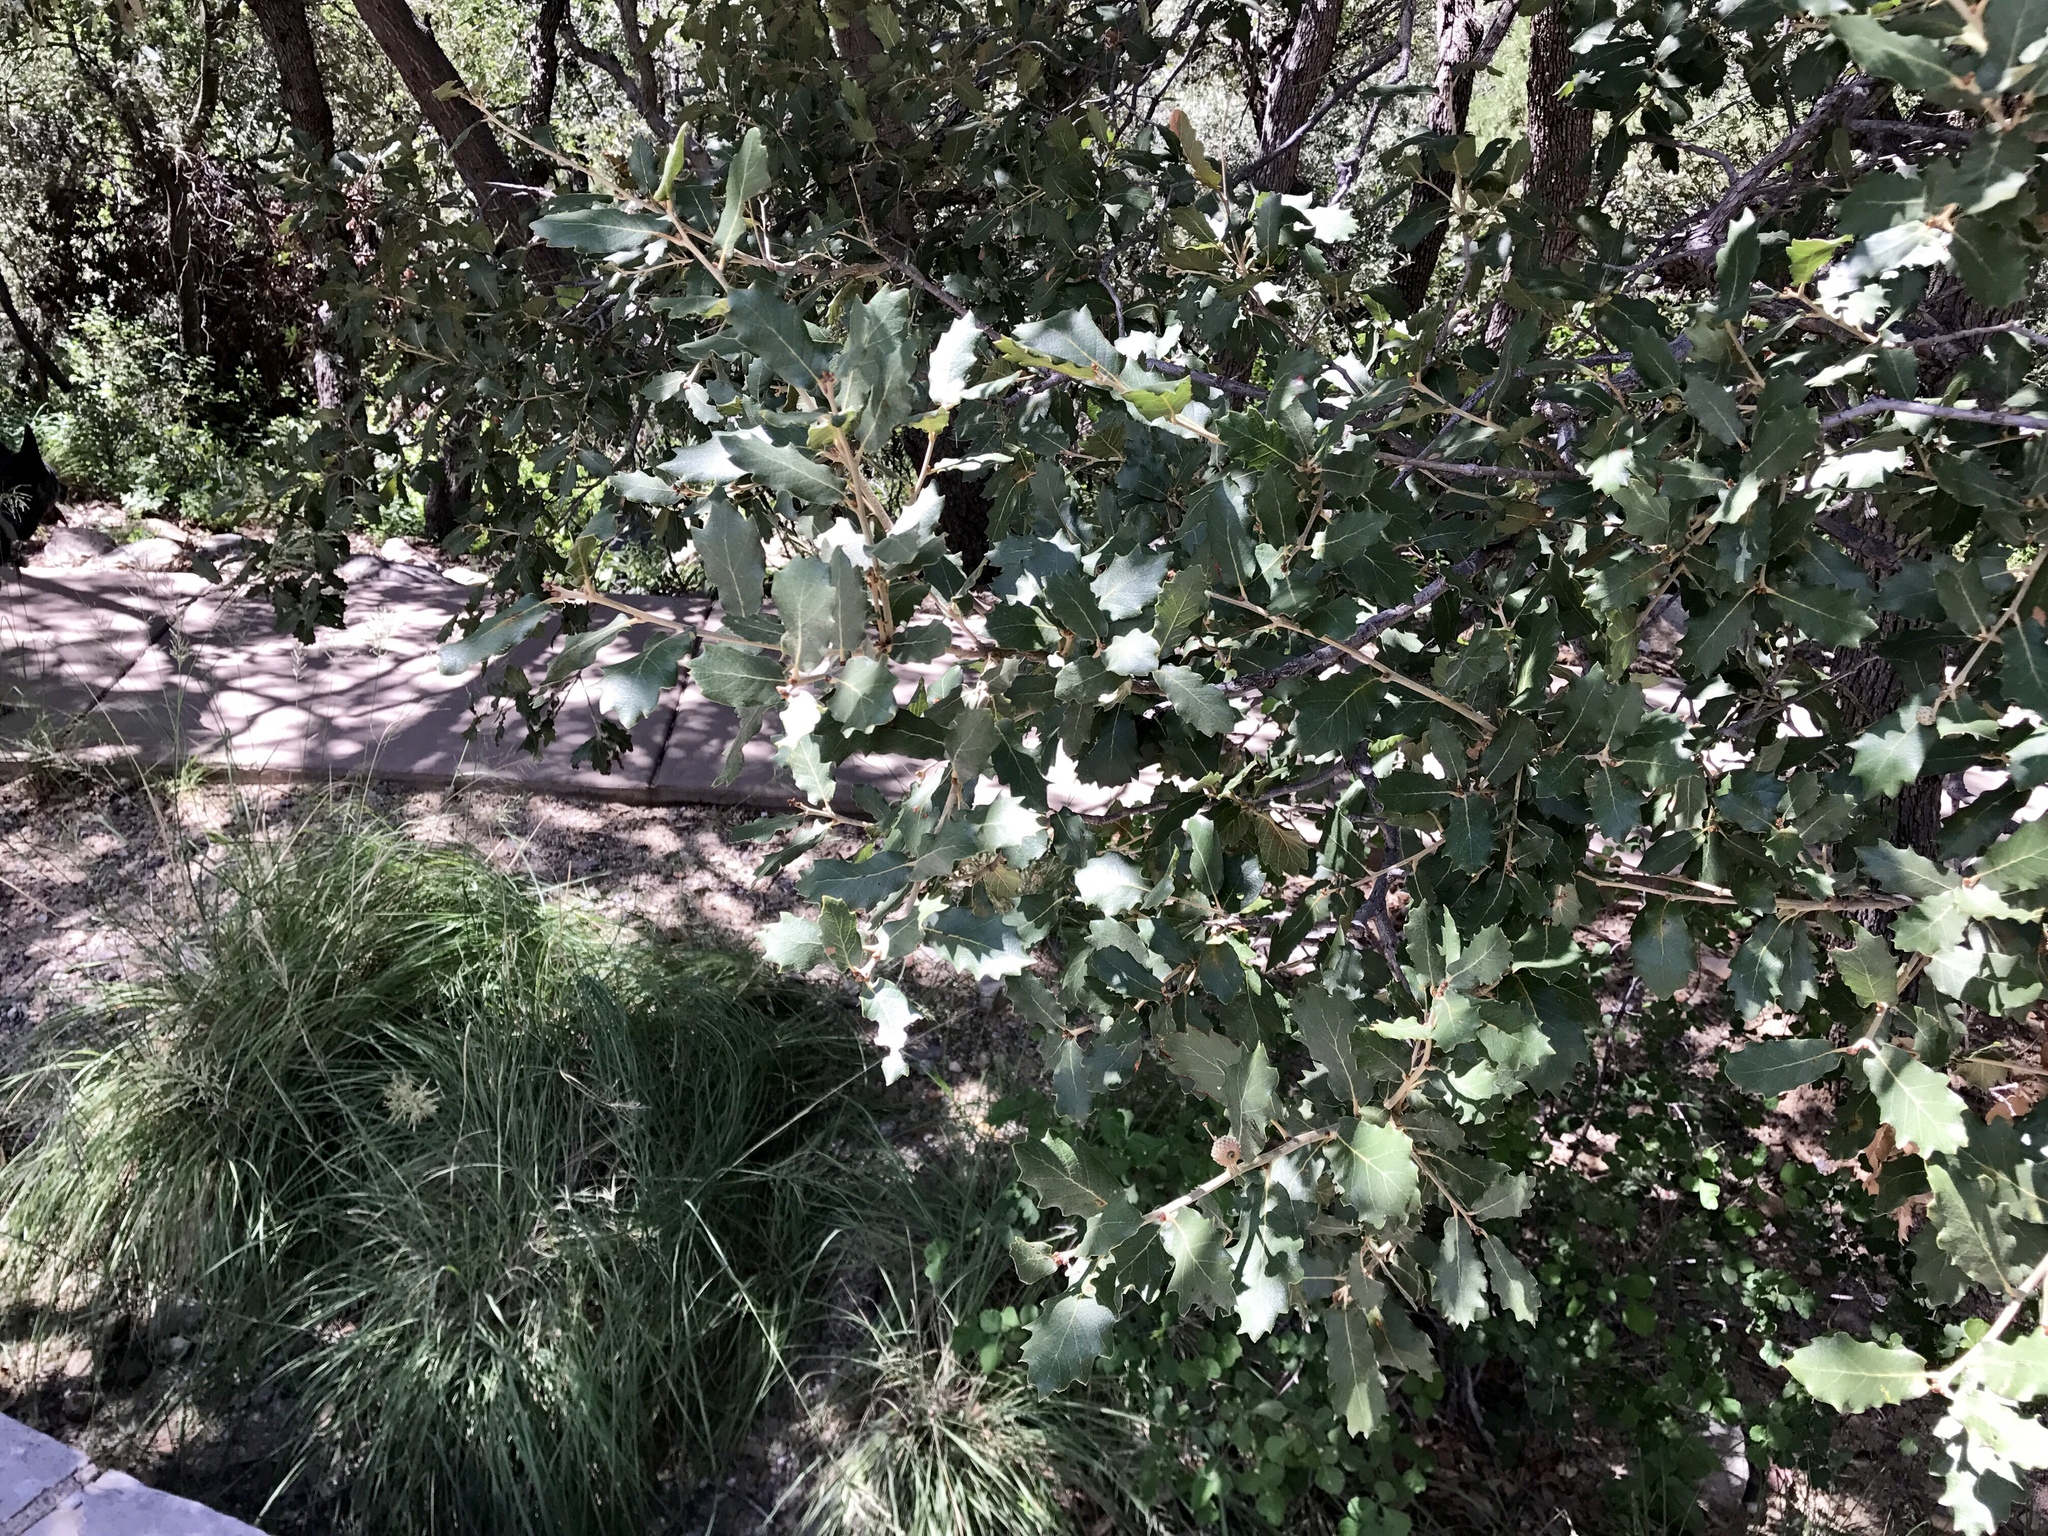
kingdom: Plantae
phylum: Tracheophyta
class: Magnoliopsida
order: Fagales
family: Fagaceae
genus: Quercus
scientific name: Quercus grisea
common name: Gray oak
